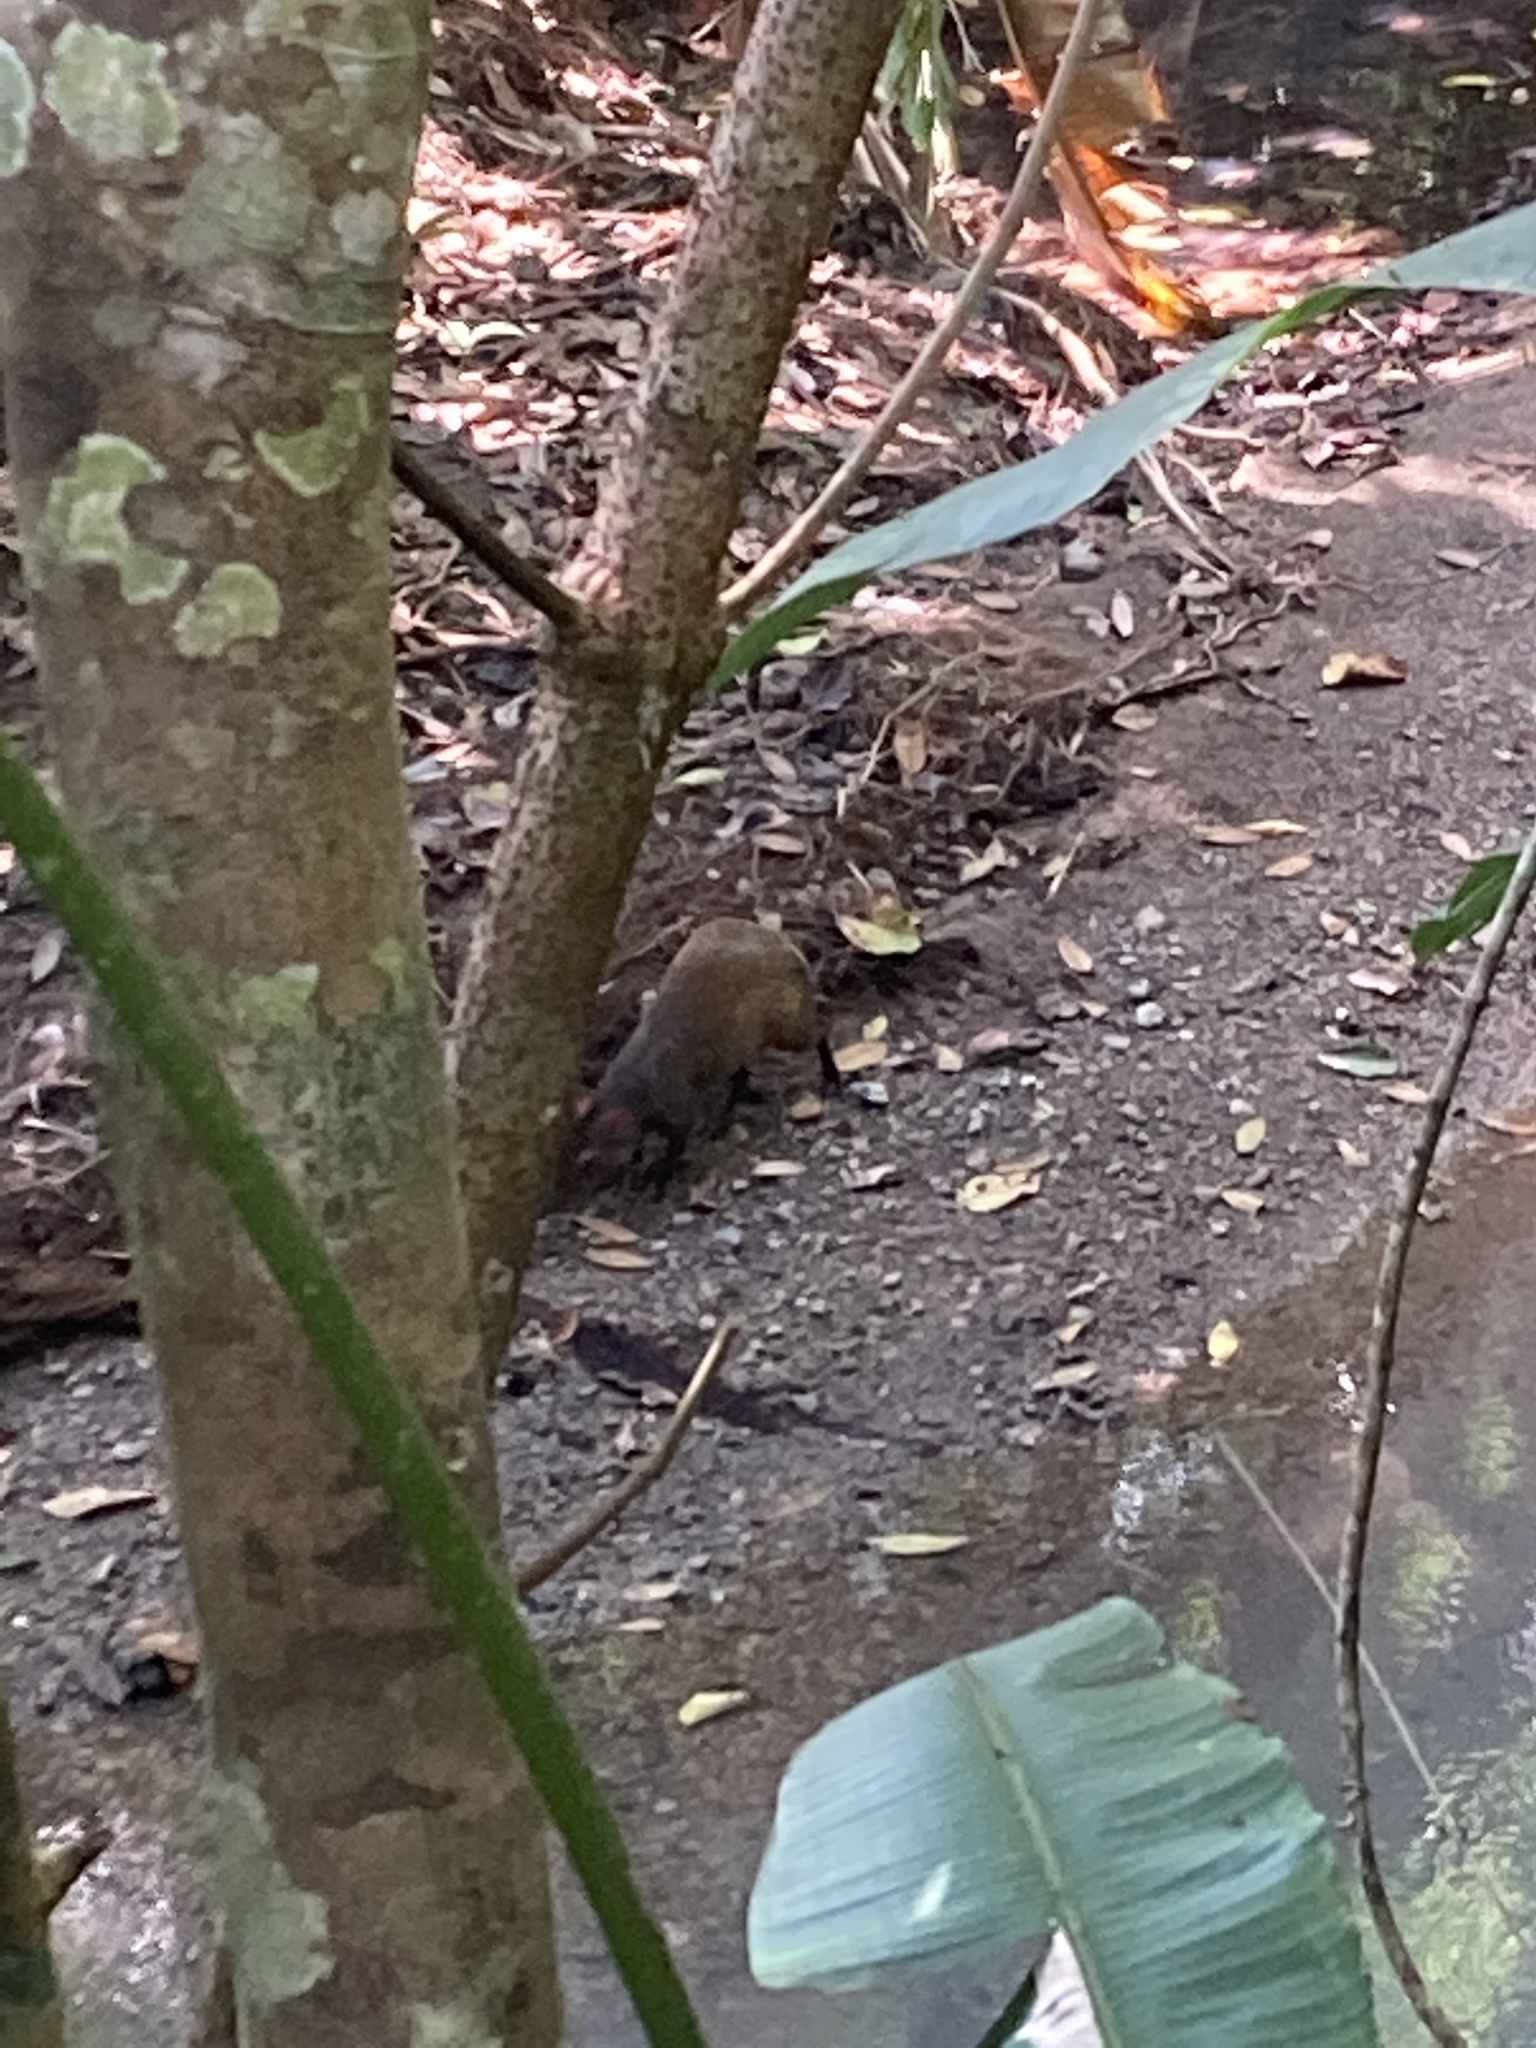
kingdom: Animalia
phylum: Chordata
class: Mammalia
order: Rodentia
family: Dasyproctidae
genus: Dasyprocta
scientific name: Dasyprocta punctata
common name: Central american agouti
